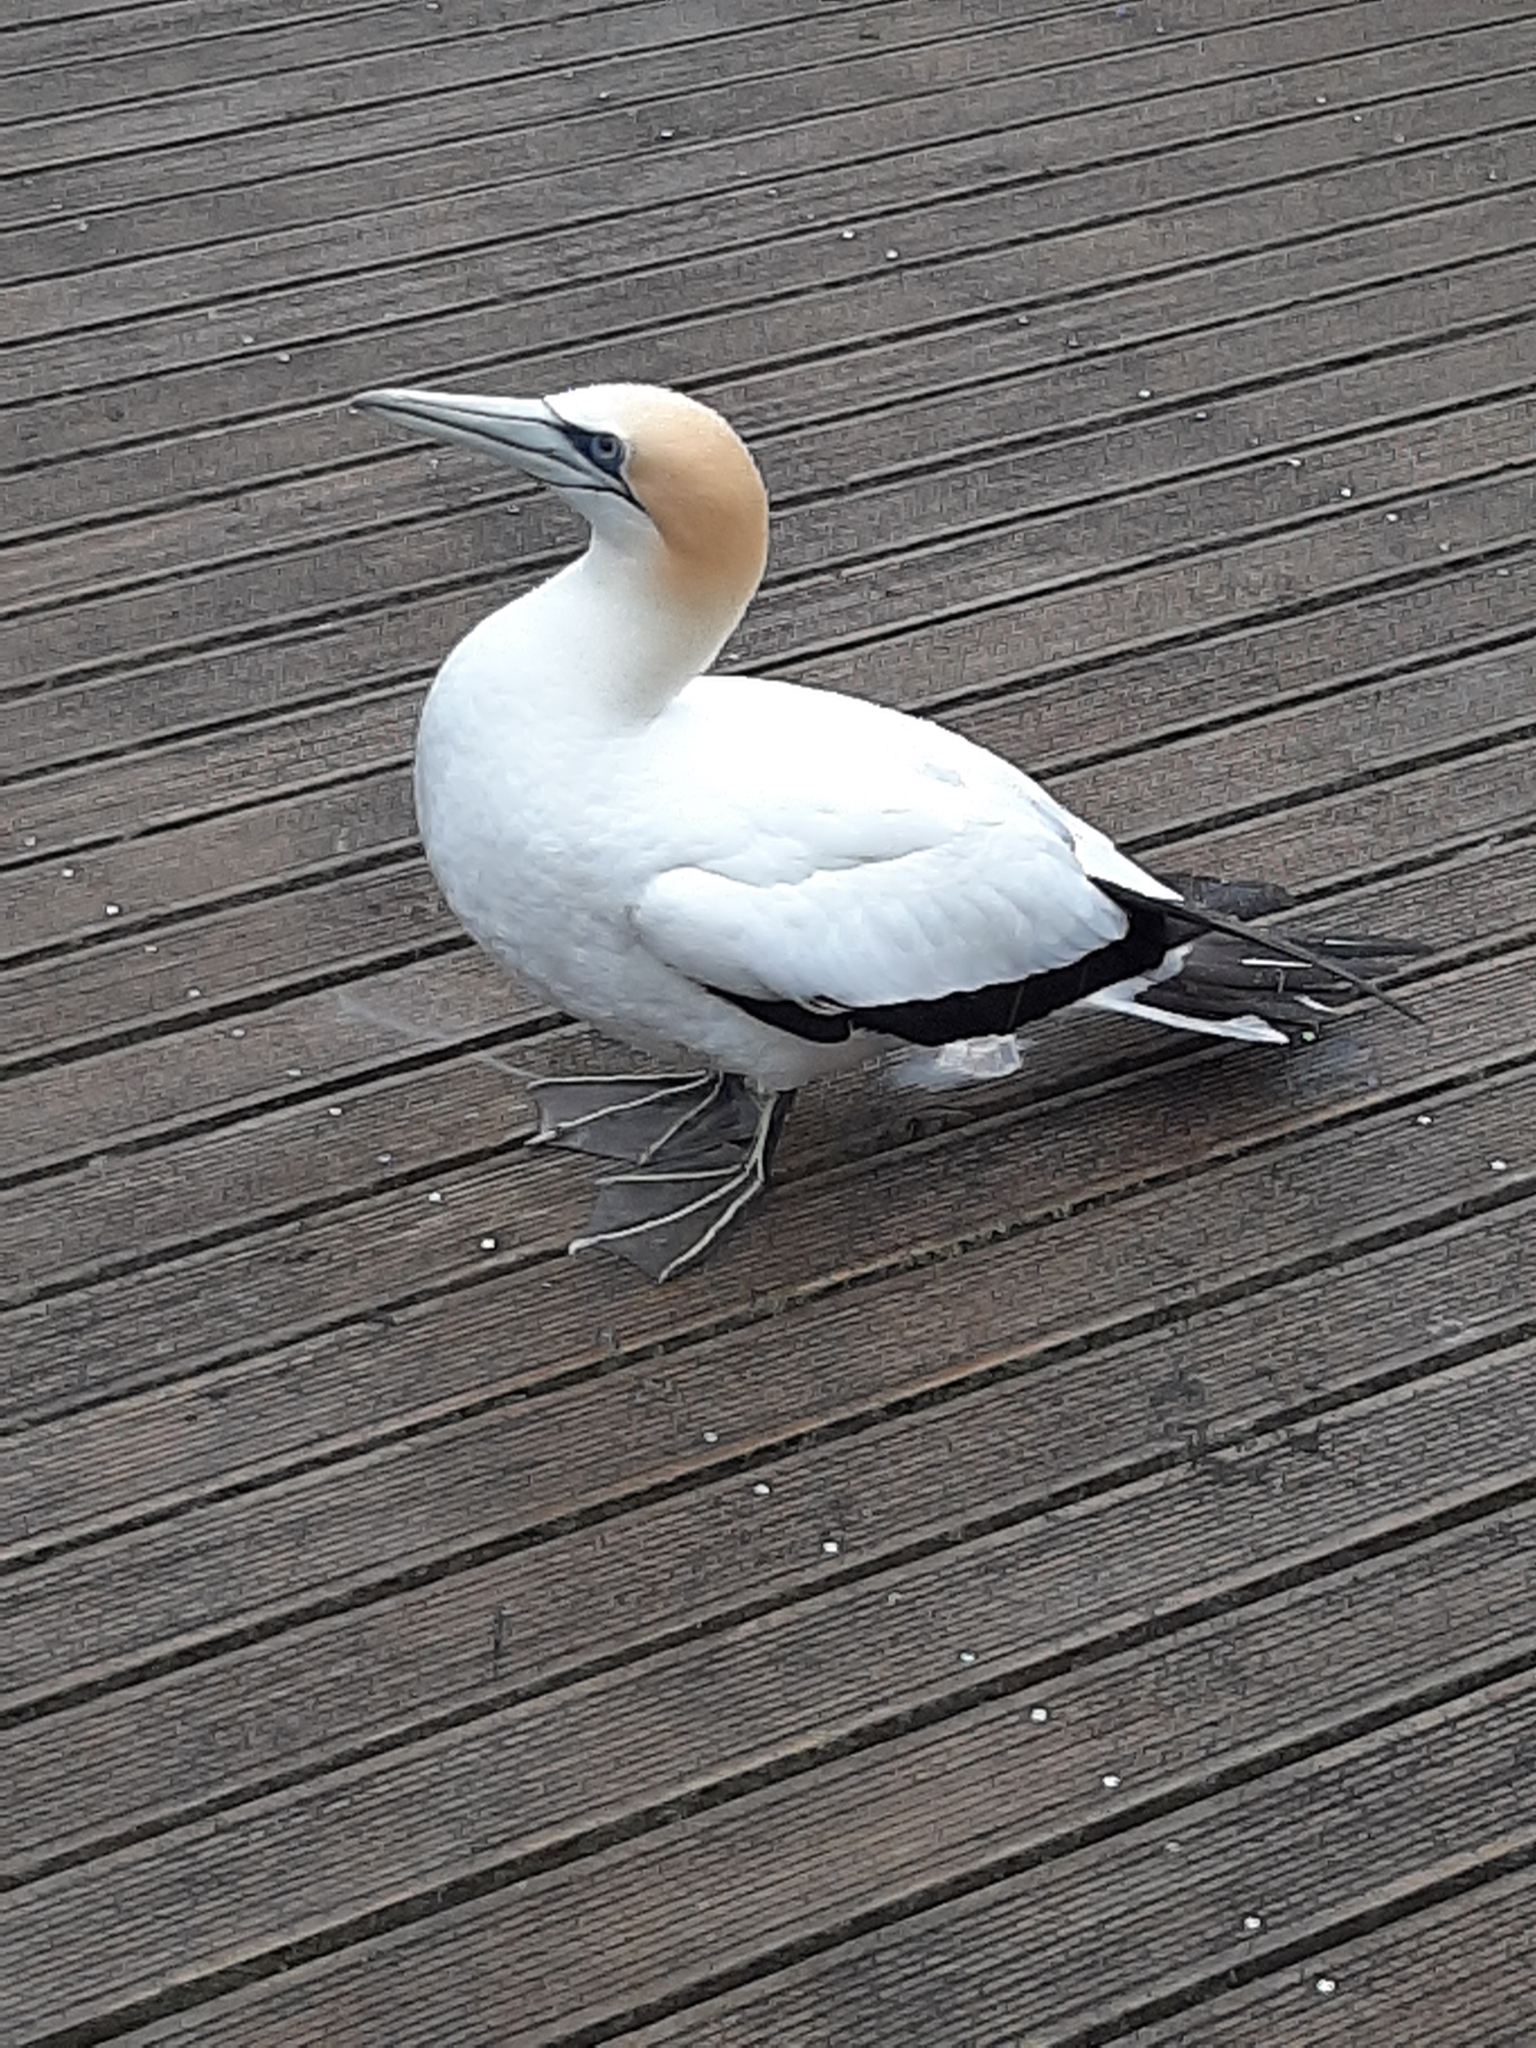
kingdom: Animalia
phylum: Chordata
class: Aves
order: Suliformes
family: Sulidae
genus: Morus
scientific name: Morus serrator
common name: Australasian gannet
